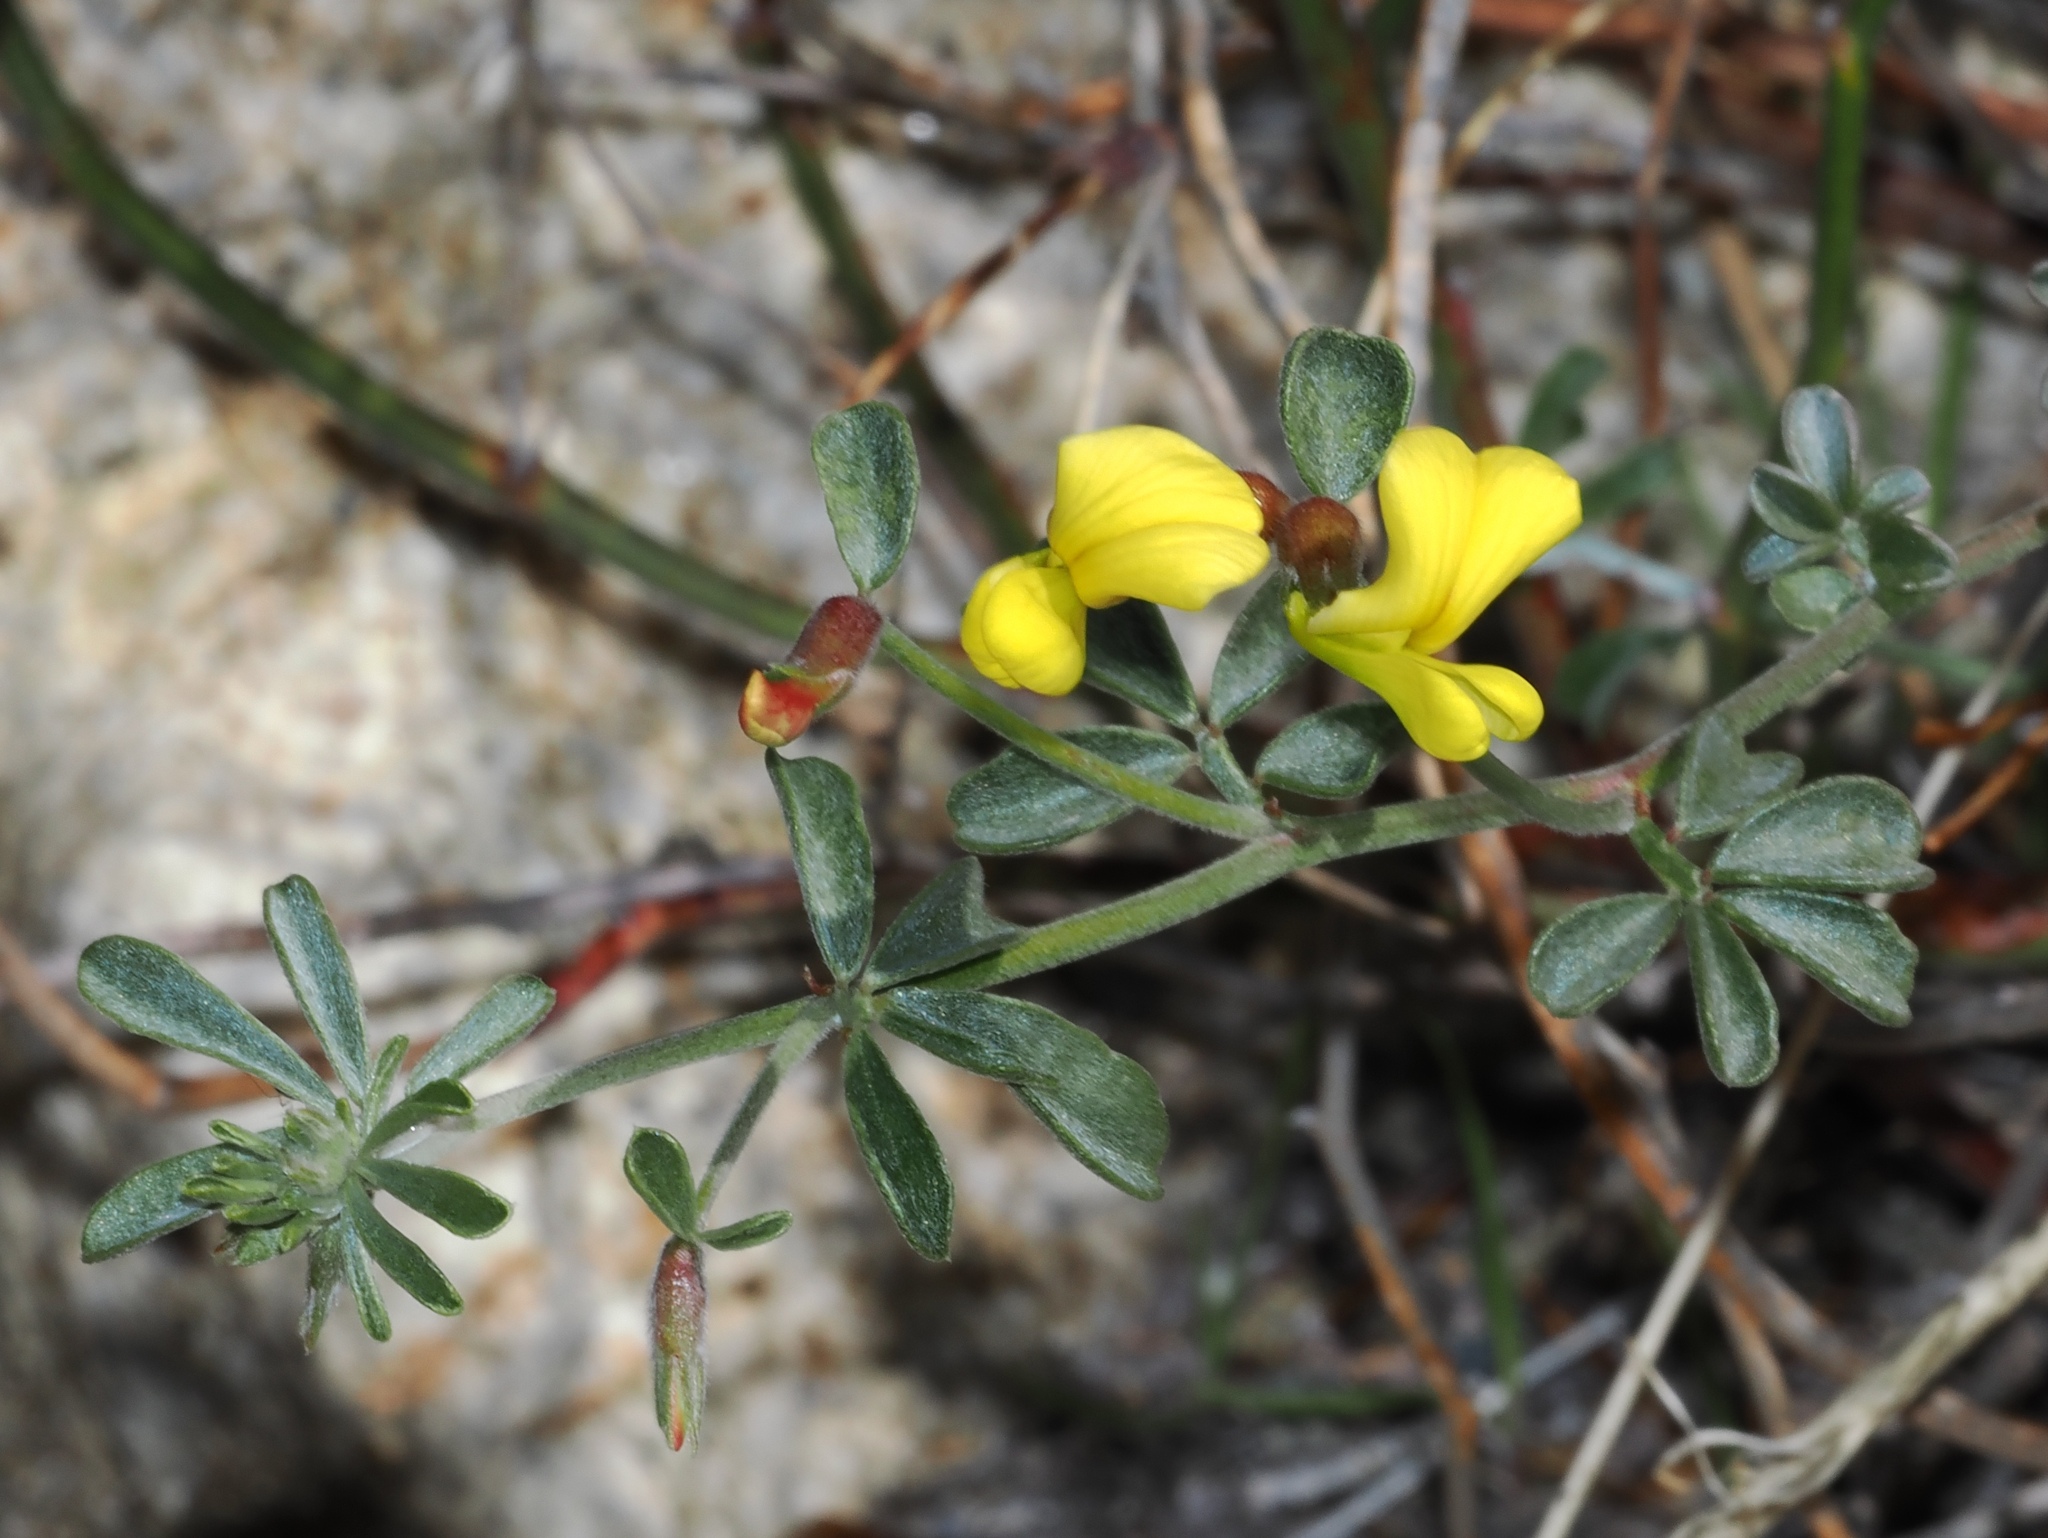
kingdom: Plantae
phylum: Tracheophyta
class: Magnoliopsida
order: Fabales
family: Fabaceae
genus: Acmispon
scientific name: Acmispon rigidus
